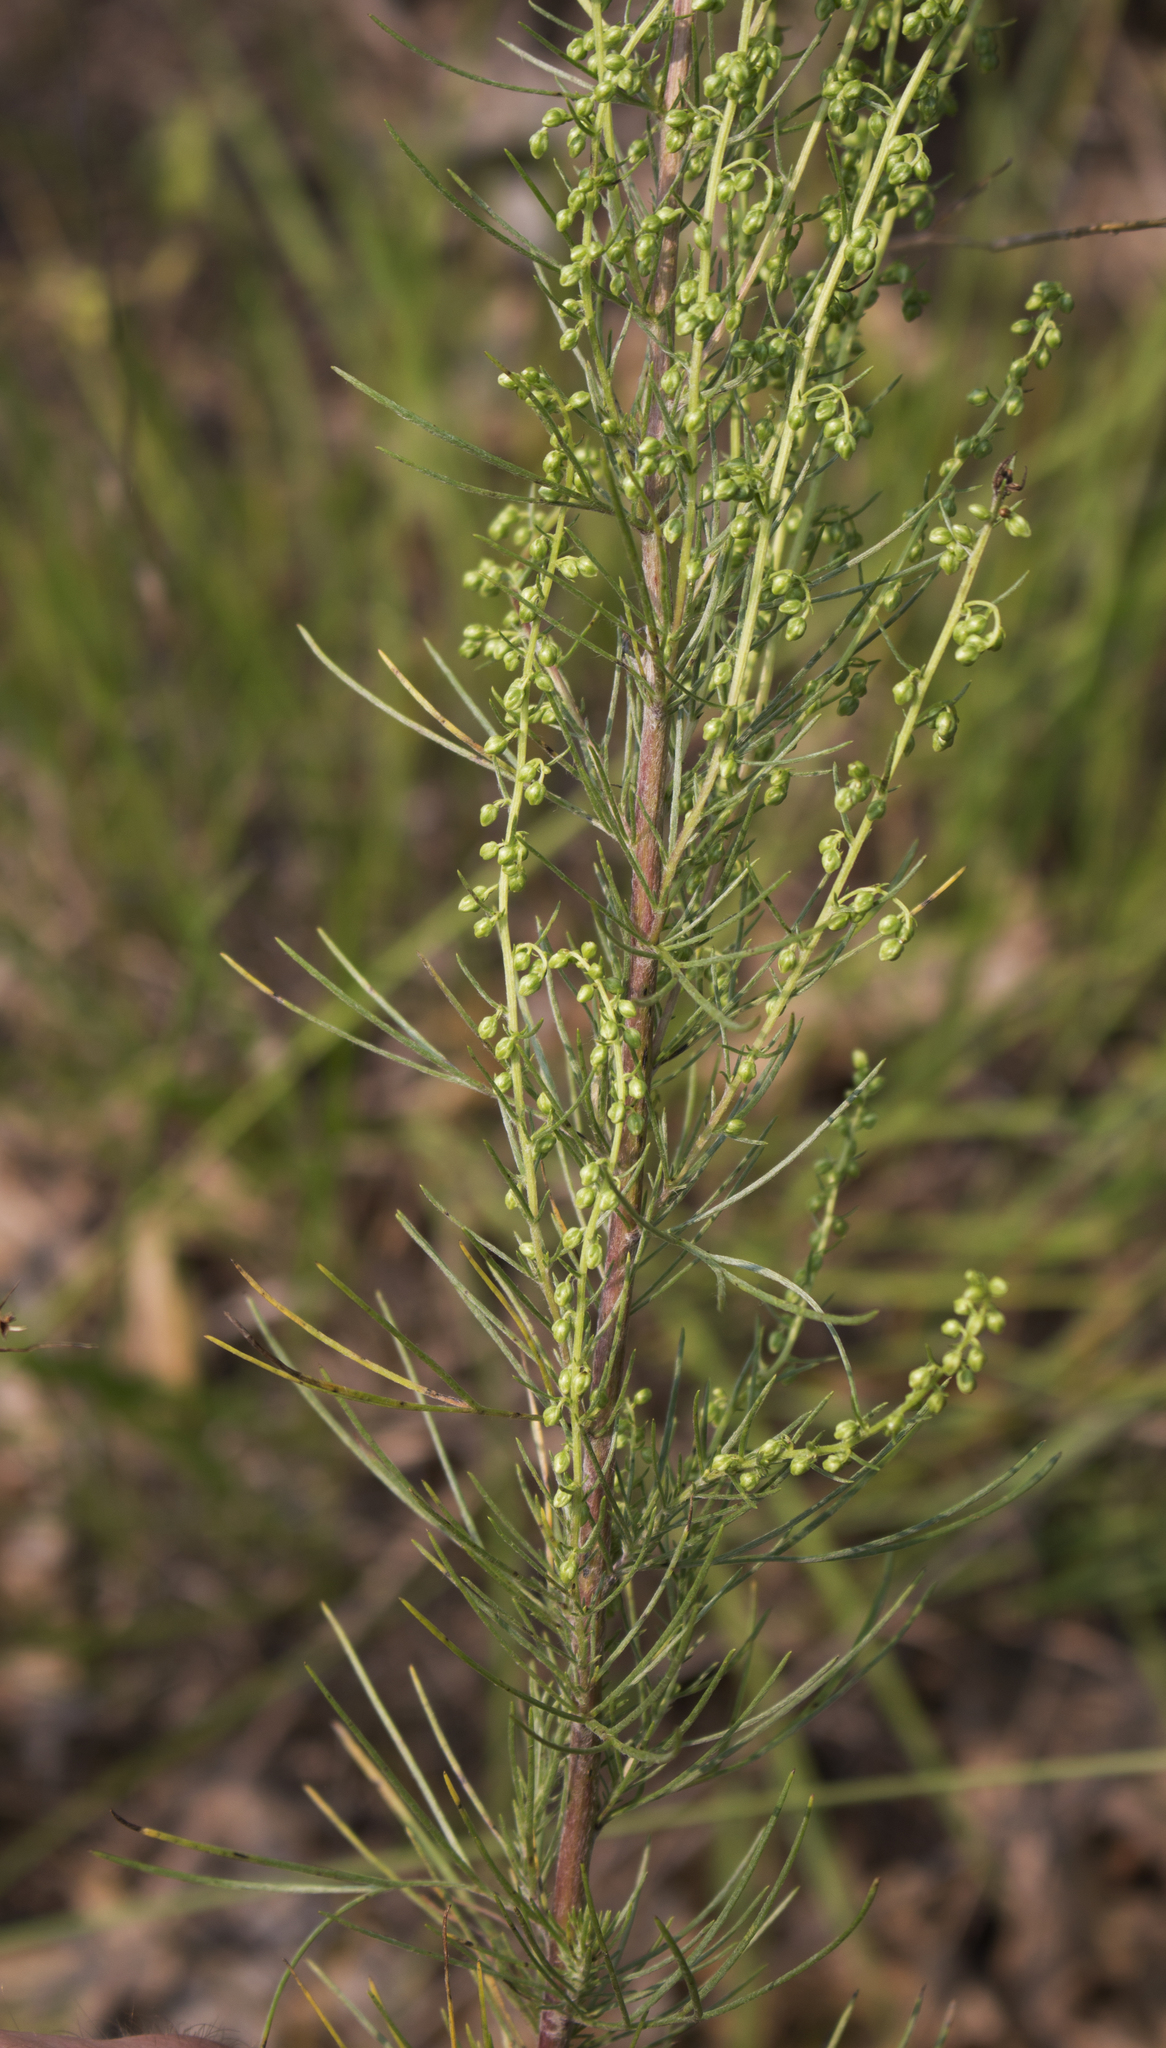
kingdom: Plantae
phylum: Tracheophyta
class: Magnoliopsida
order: Asterales
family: Asteraceae
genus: Artemisia
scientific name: Artemisia campestris
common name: Field wormwood
